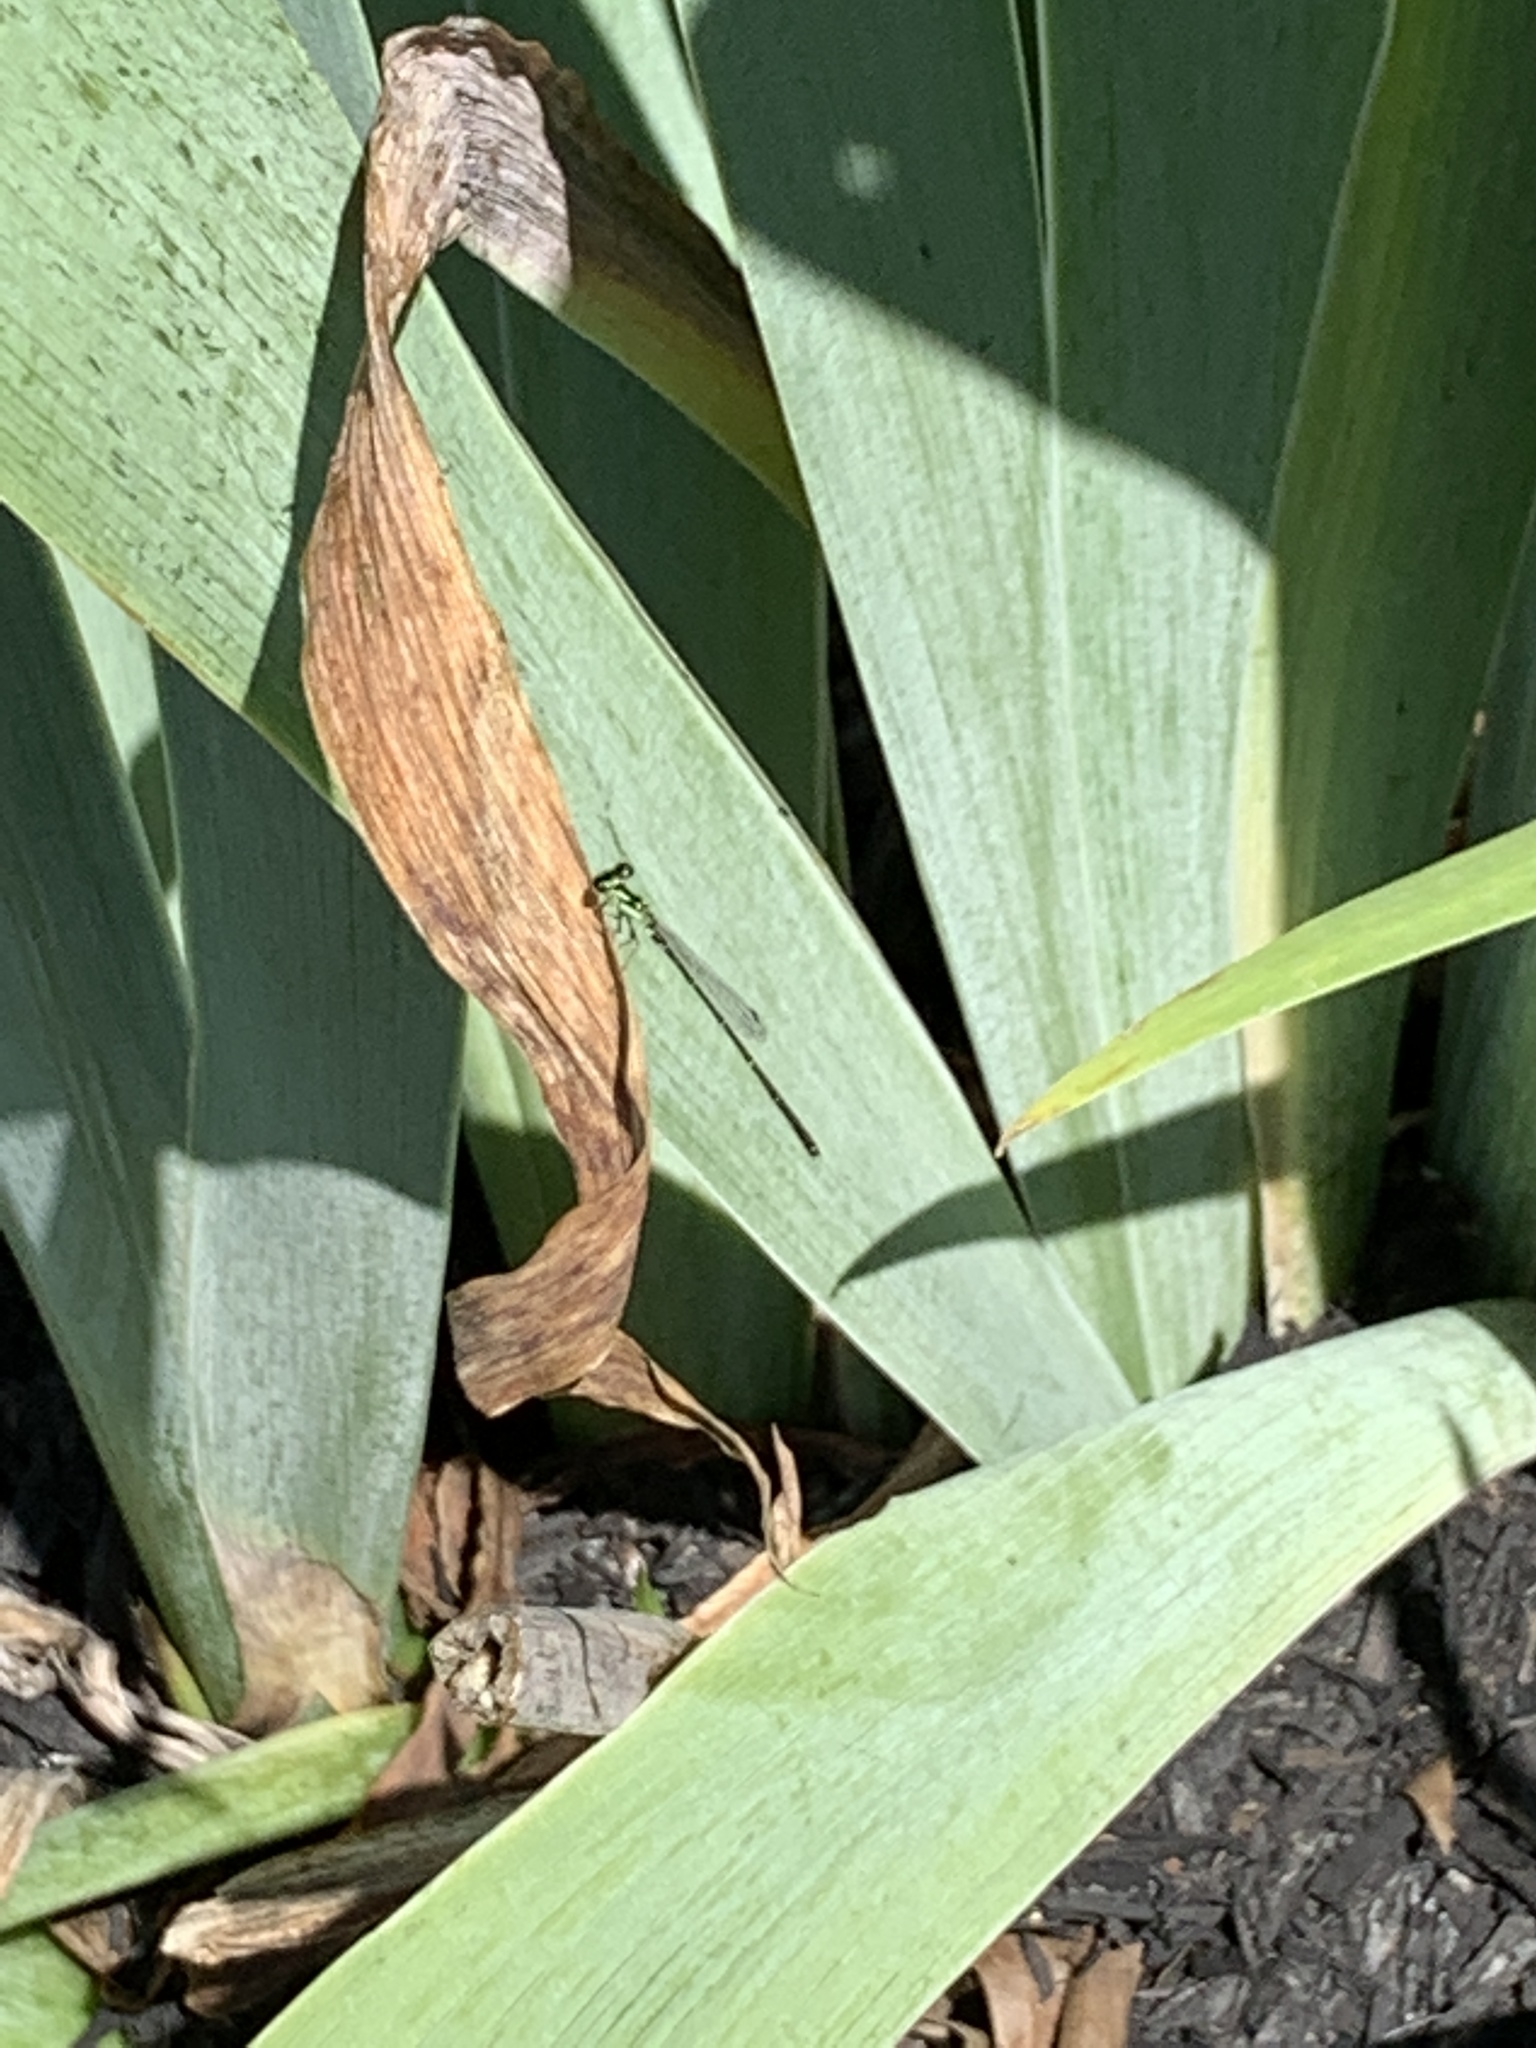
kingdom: Animalia
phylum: Arthropoda
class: Insecta
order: Odonata
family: Coenagrionidae
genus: Ischnura
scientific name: Ischnura posita
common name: Fragile forktail
